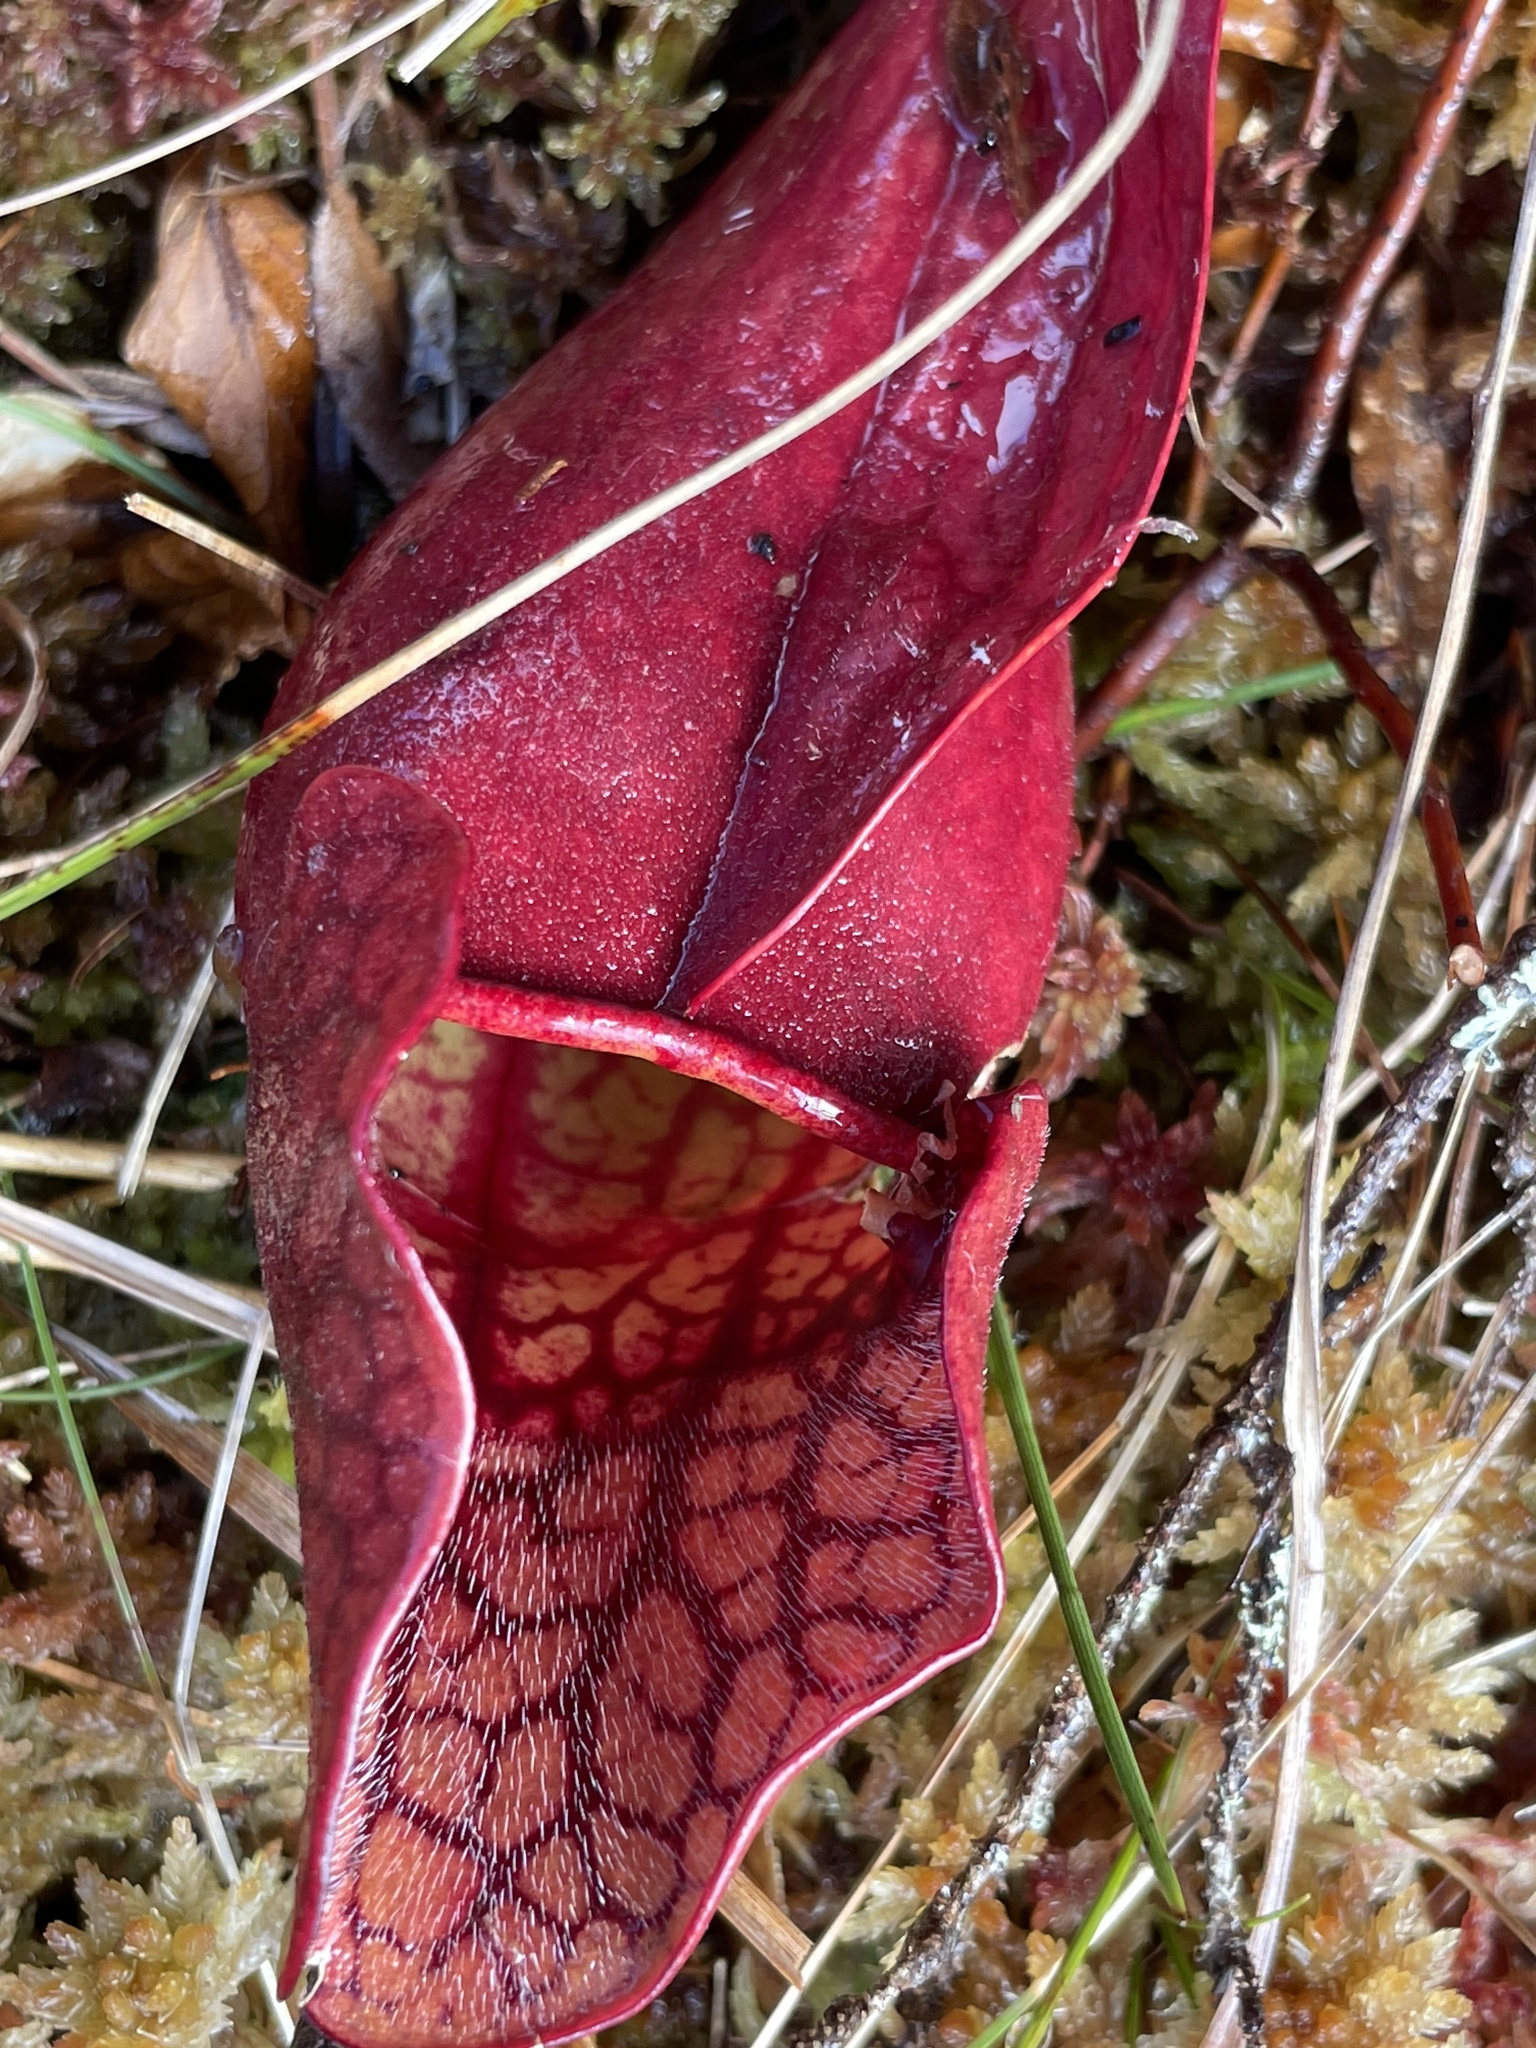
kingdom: Plantae
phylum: Tracheophyta
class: Magnoliopsida
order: Ericales
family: Sarraceniaceae
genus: Sarracenia
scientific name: Sarracenia purpurea
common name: Pitcherplant
